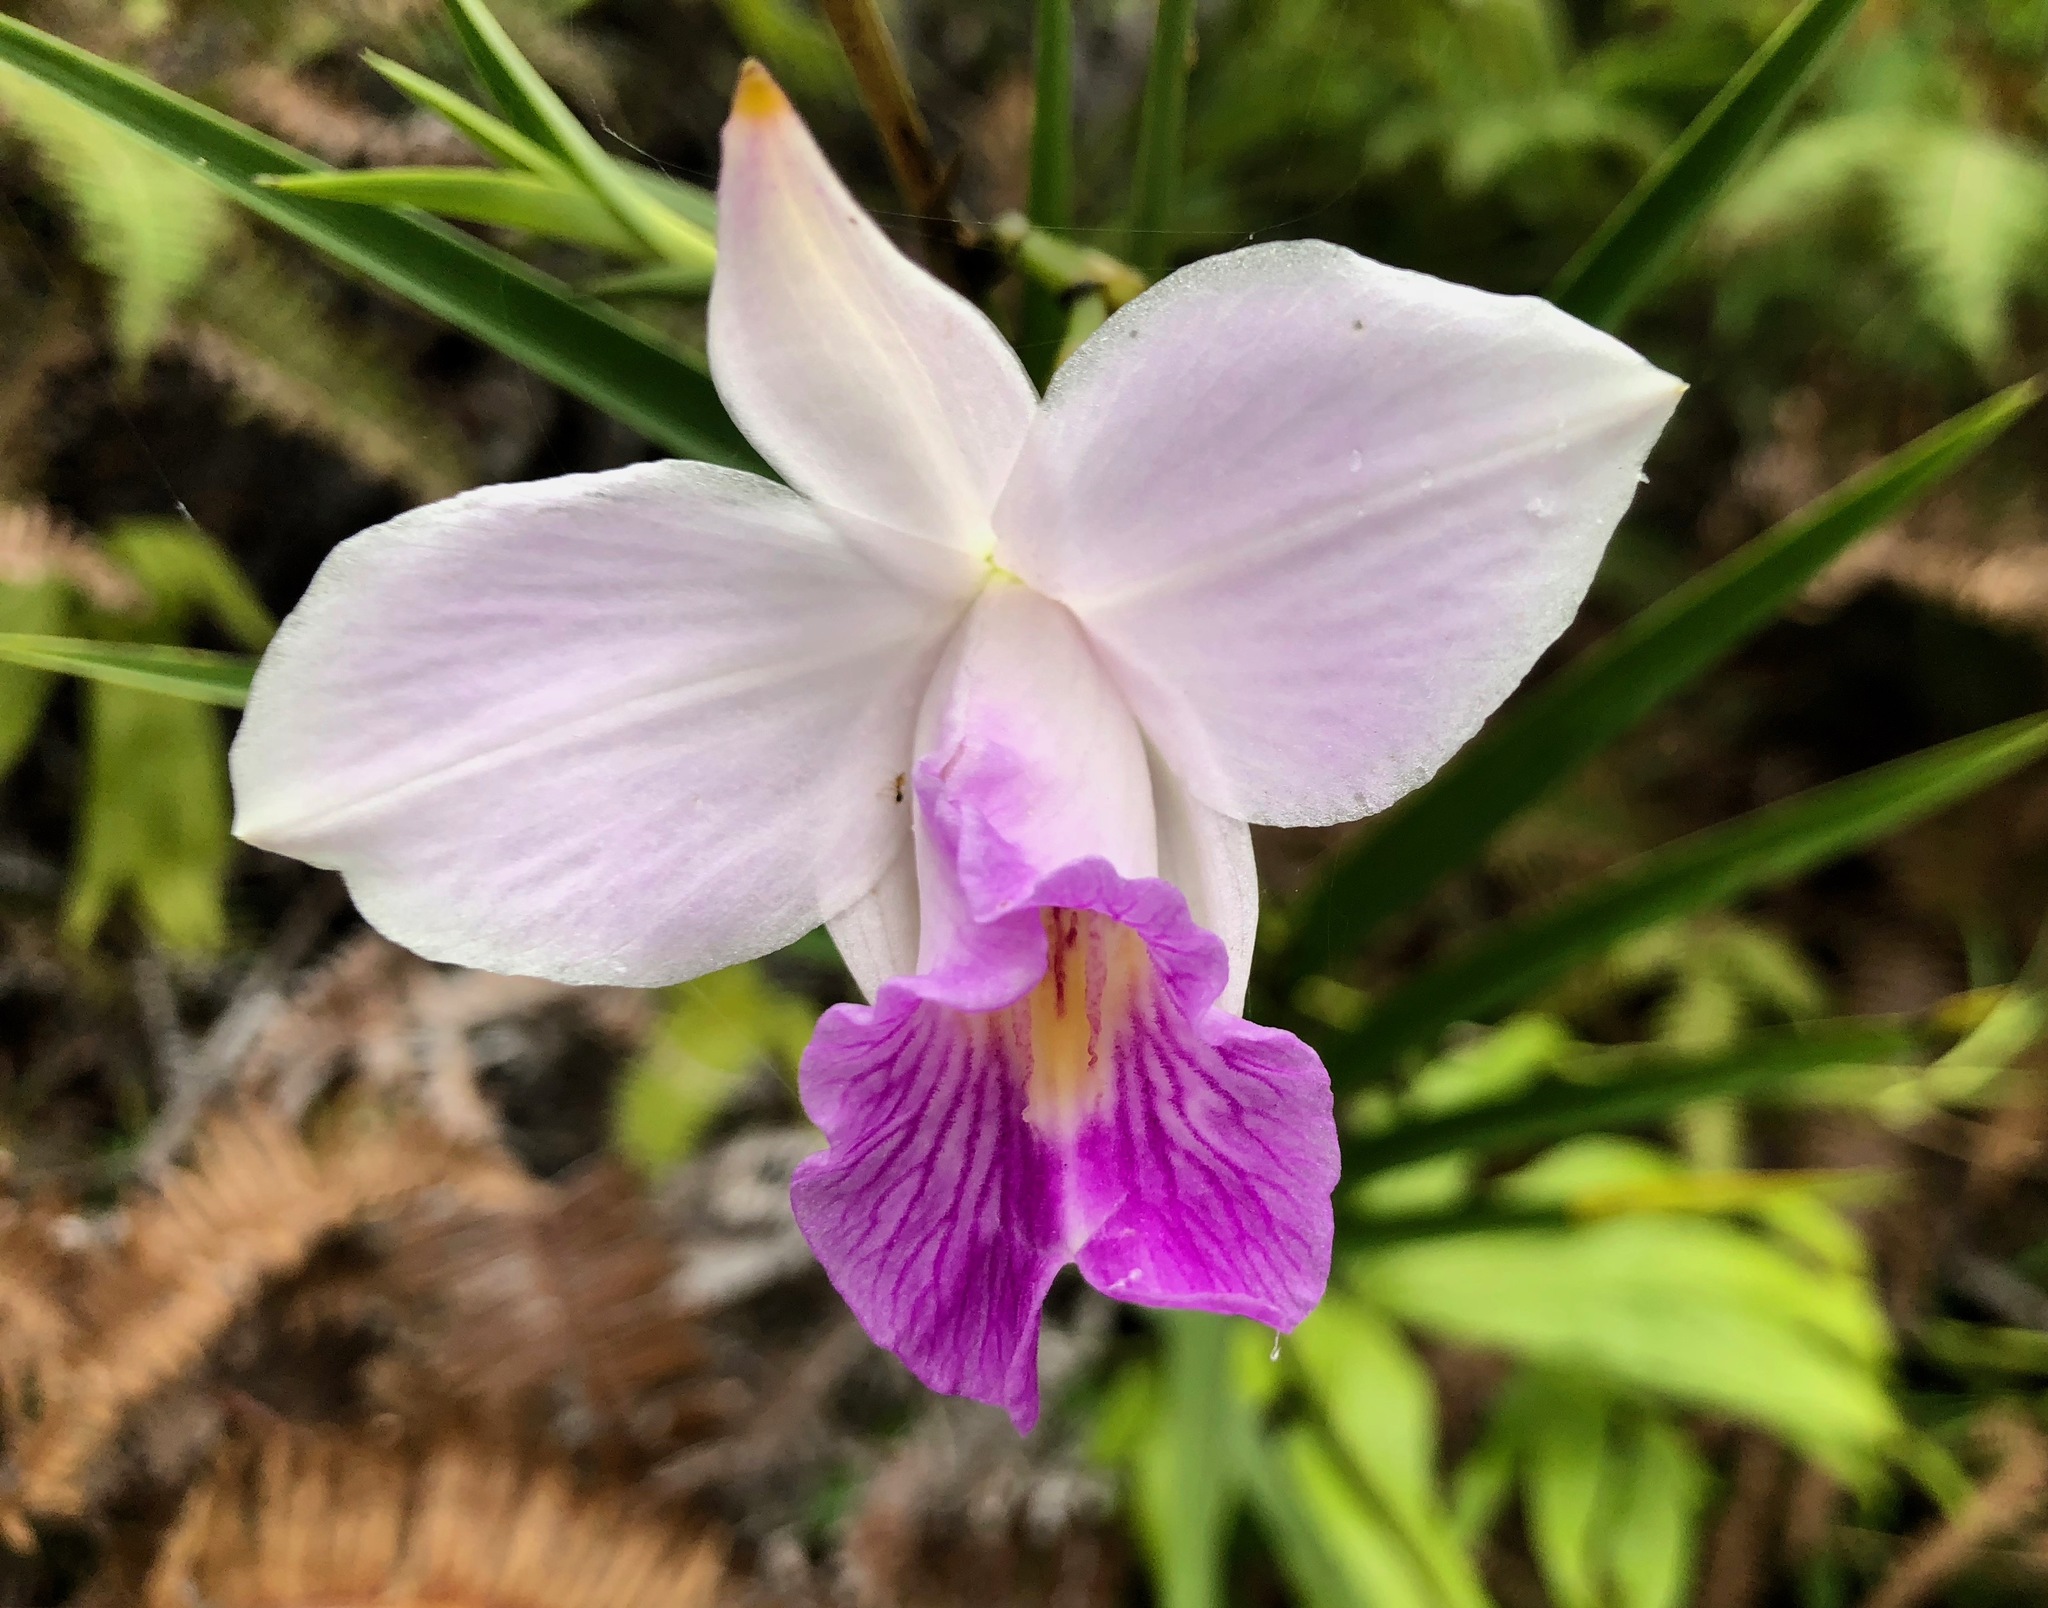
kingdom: Plantae
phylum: Tracheophyta
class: Liliopsida
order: Asparagales
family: Orchidaceae
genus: Arundina
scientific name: Arundina graminifolia
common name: Bamboo orchid
